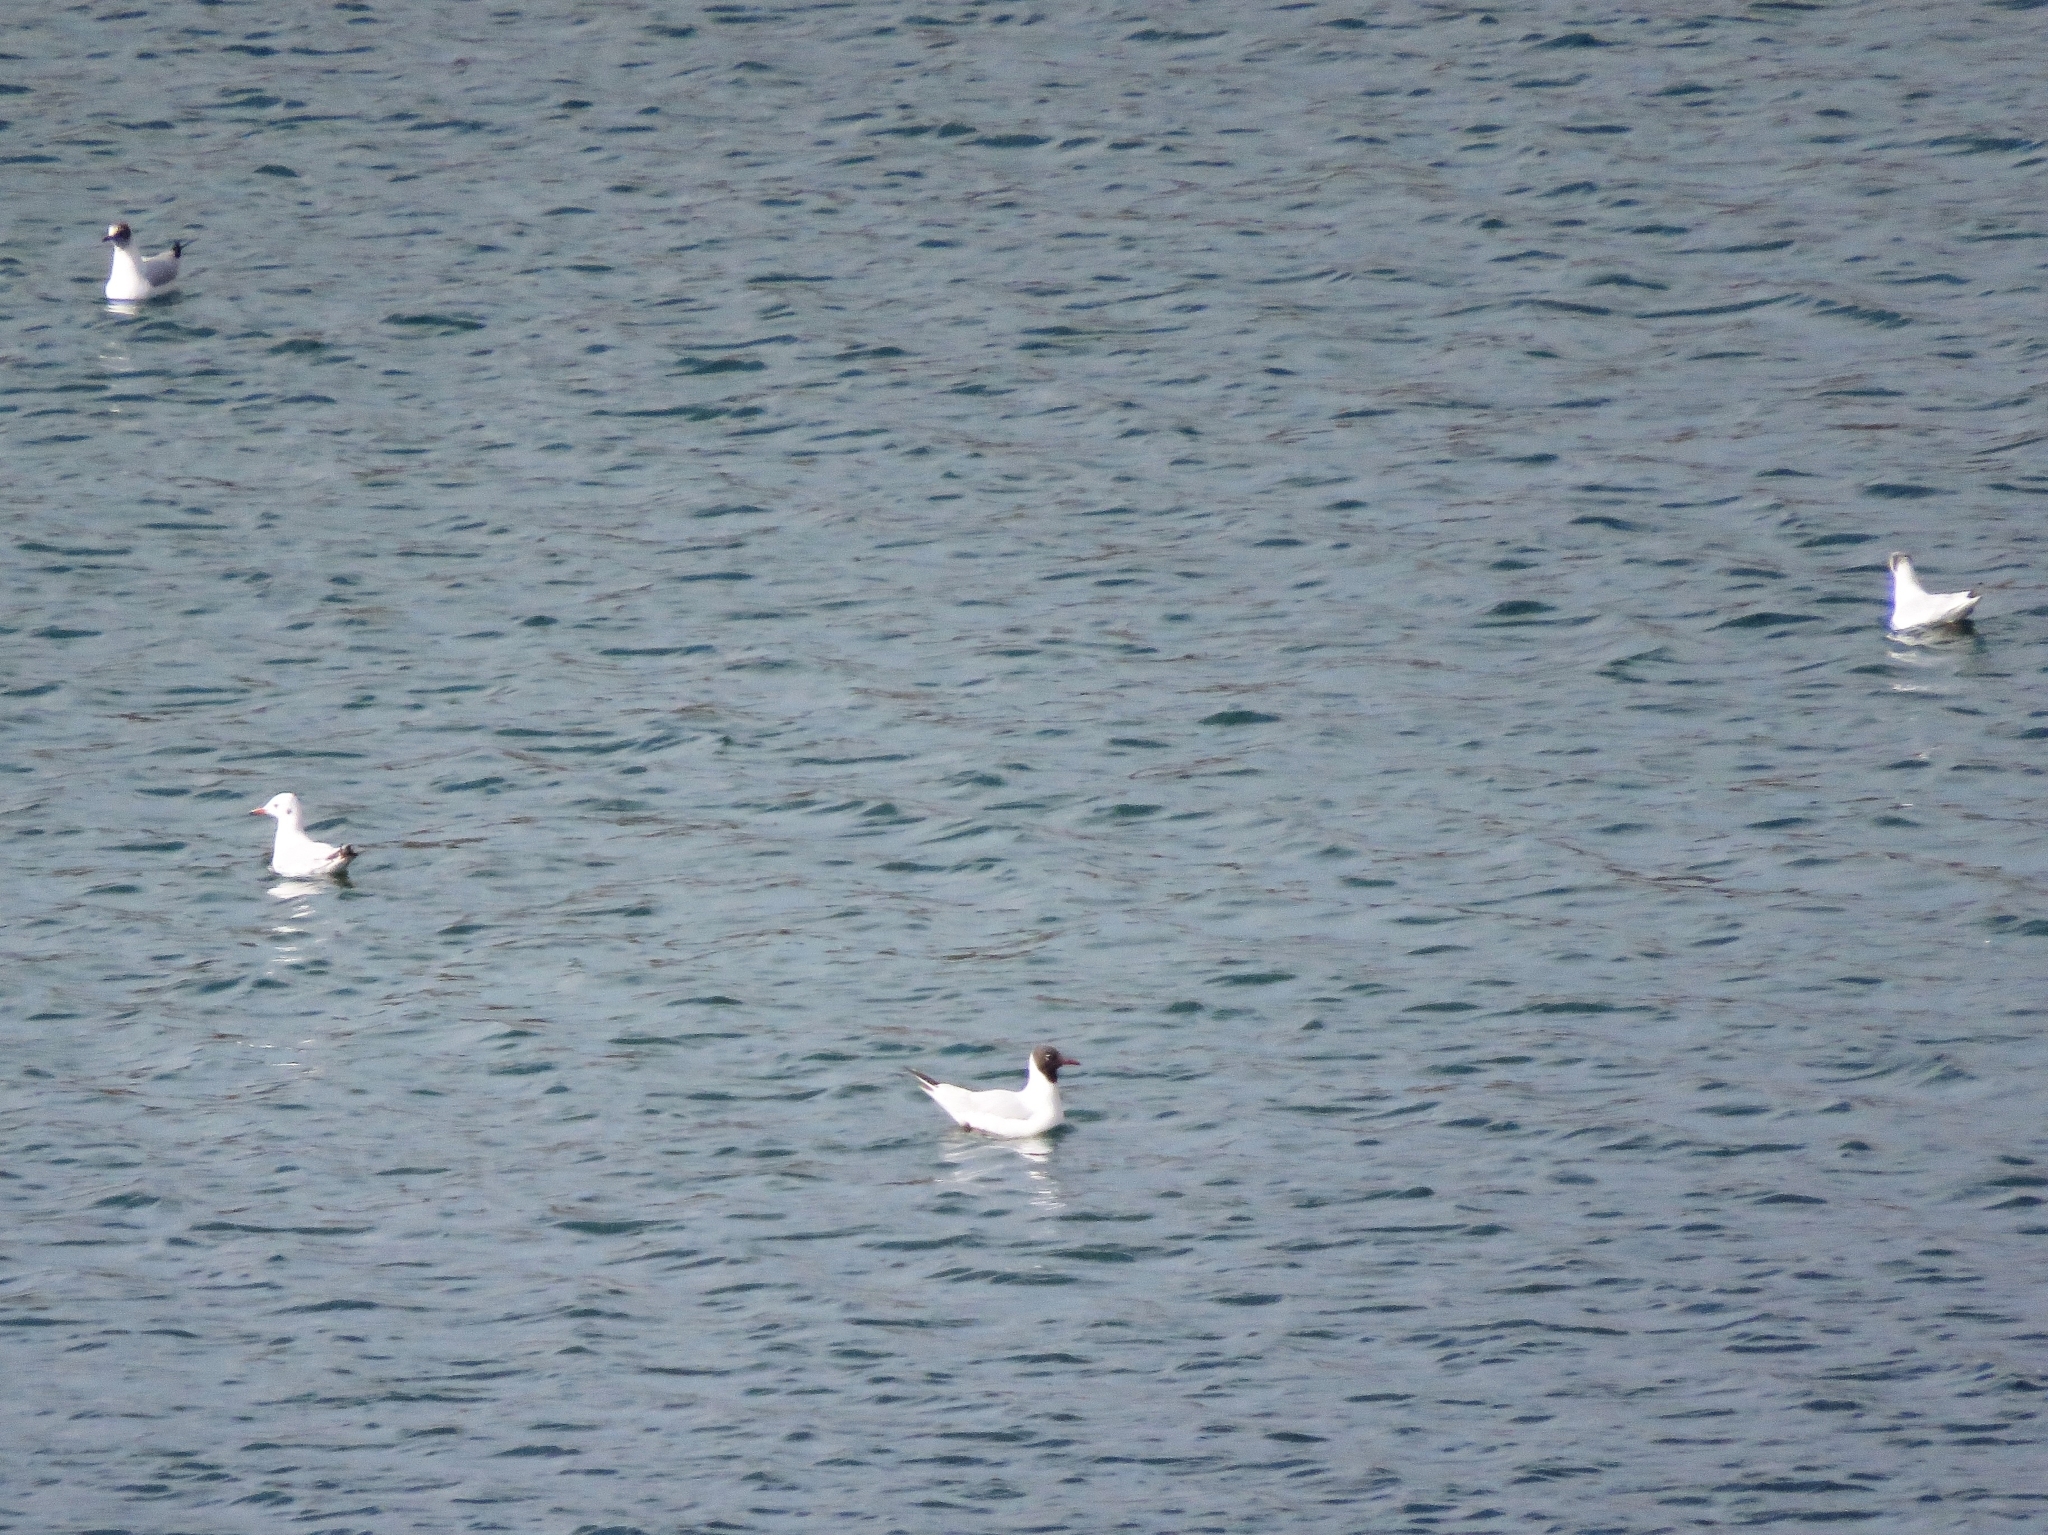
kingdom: Animalia
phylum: Chordata
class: Aves
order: Charadriiformes
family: Laridae
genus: Chroicocephalus
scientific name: Chroicocephalus ridibundus
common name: Black-headed gull
